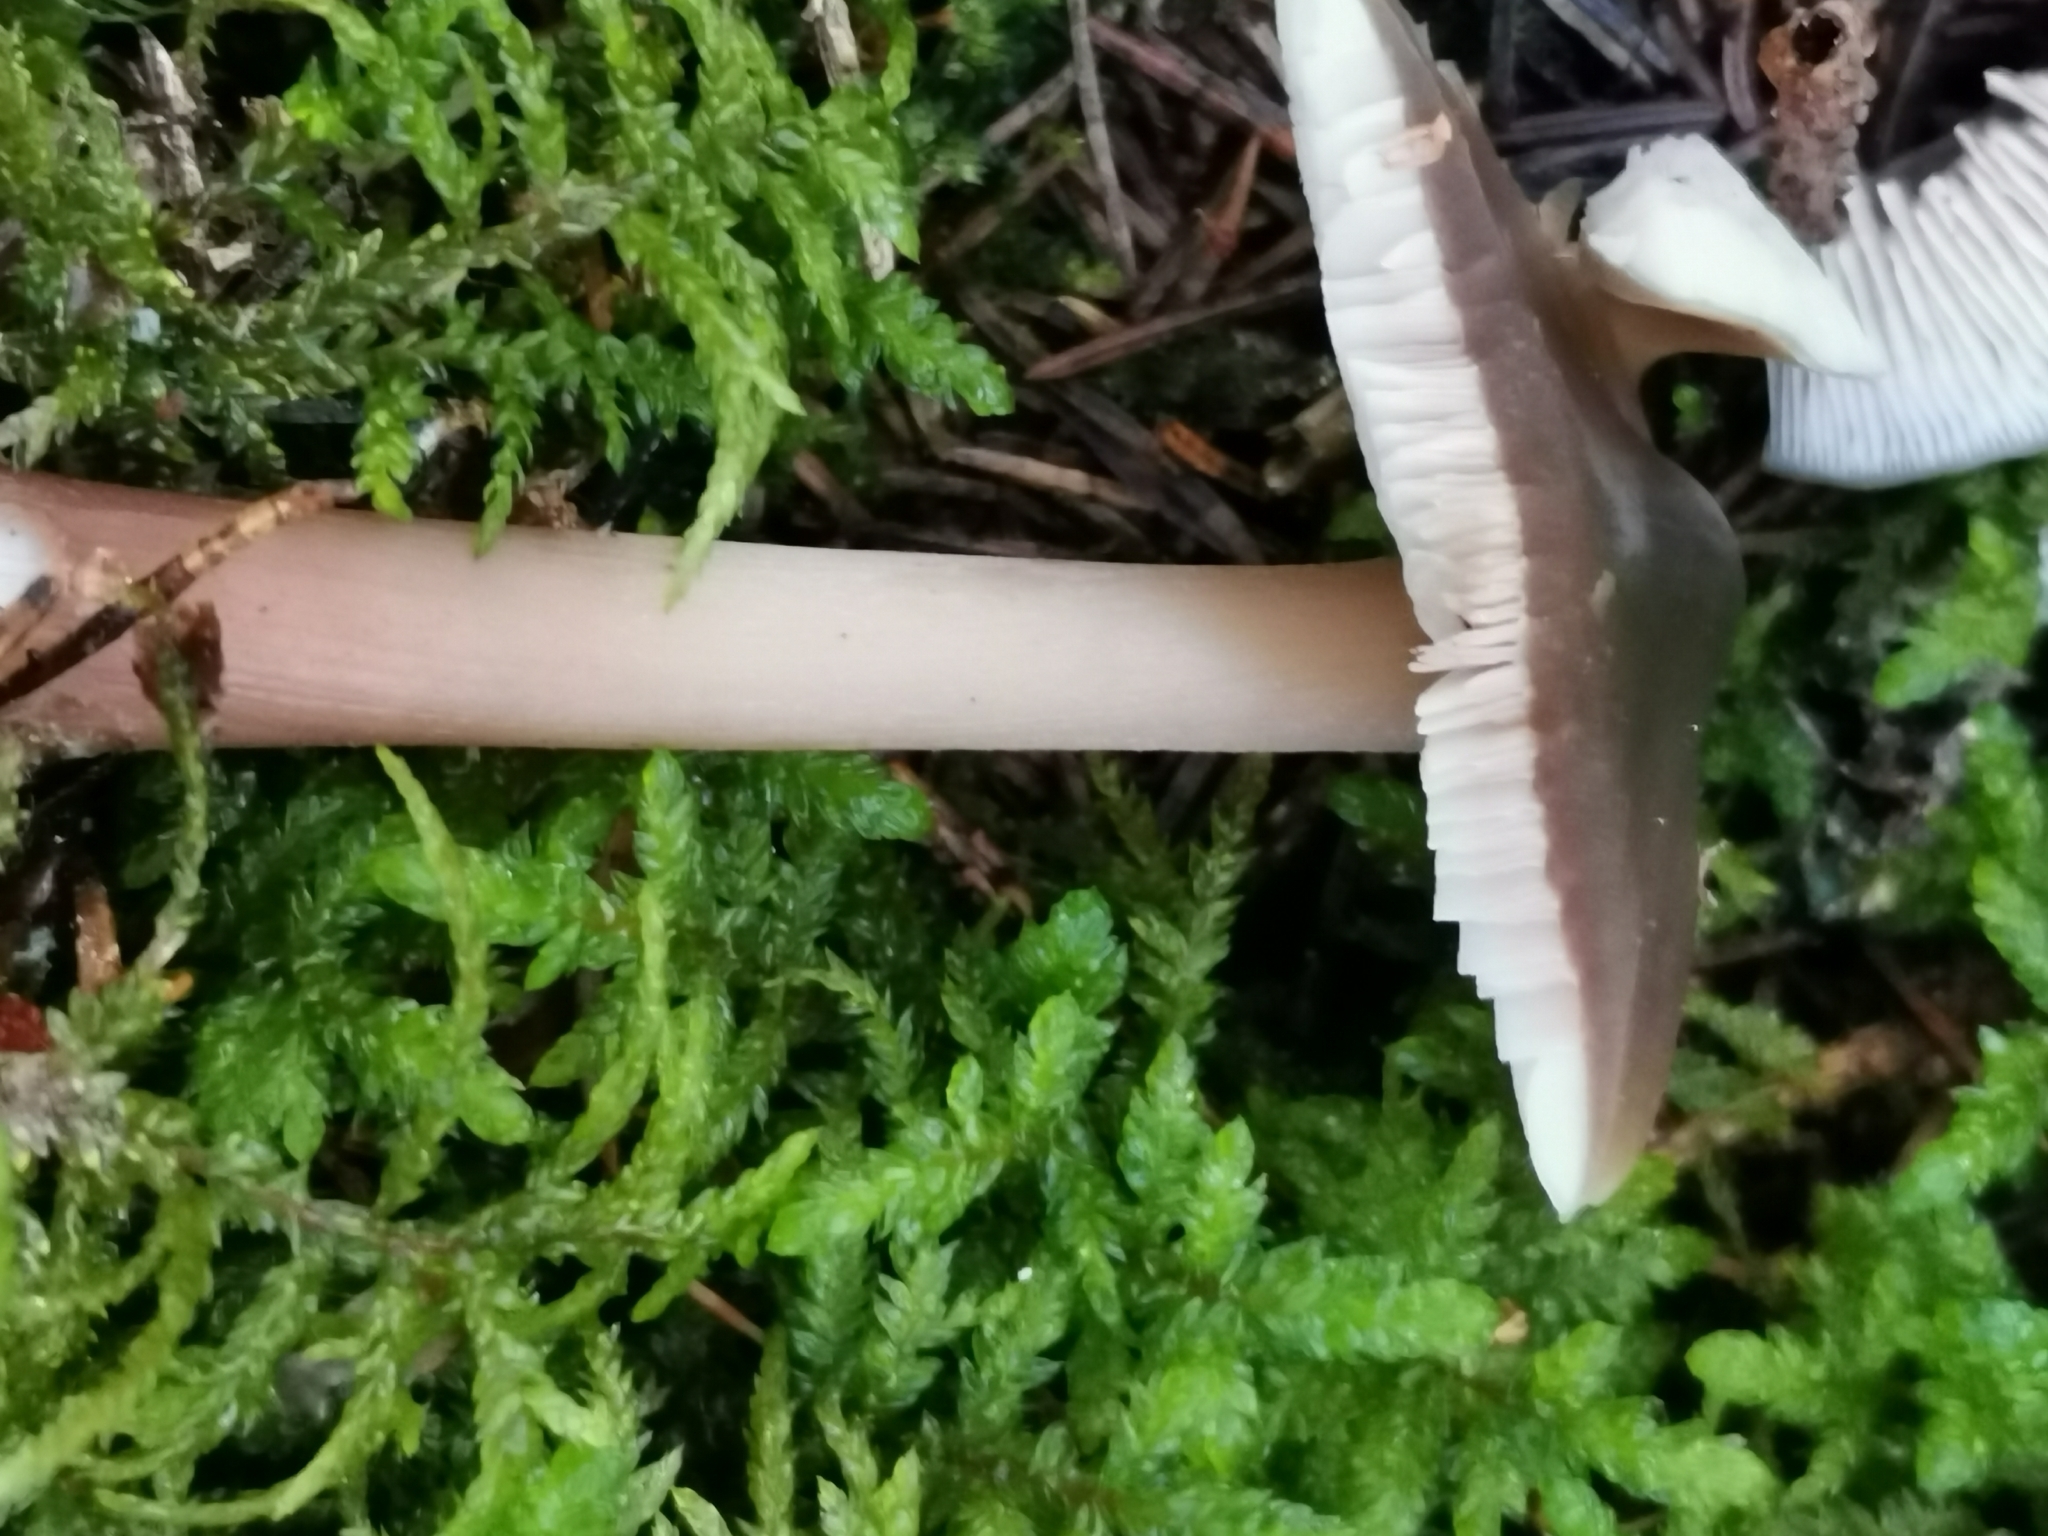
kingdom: Fungi
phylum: Basidiomycota
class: Agaricomycetes
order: Agaricales
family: Omphalotaceae
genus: Rhodocollybia
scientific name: Rhodocollybia butyracea
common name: Butter cap
